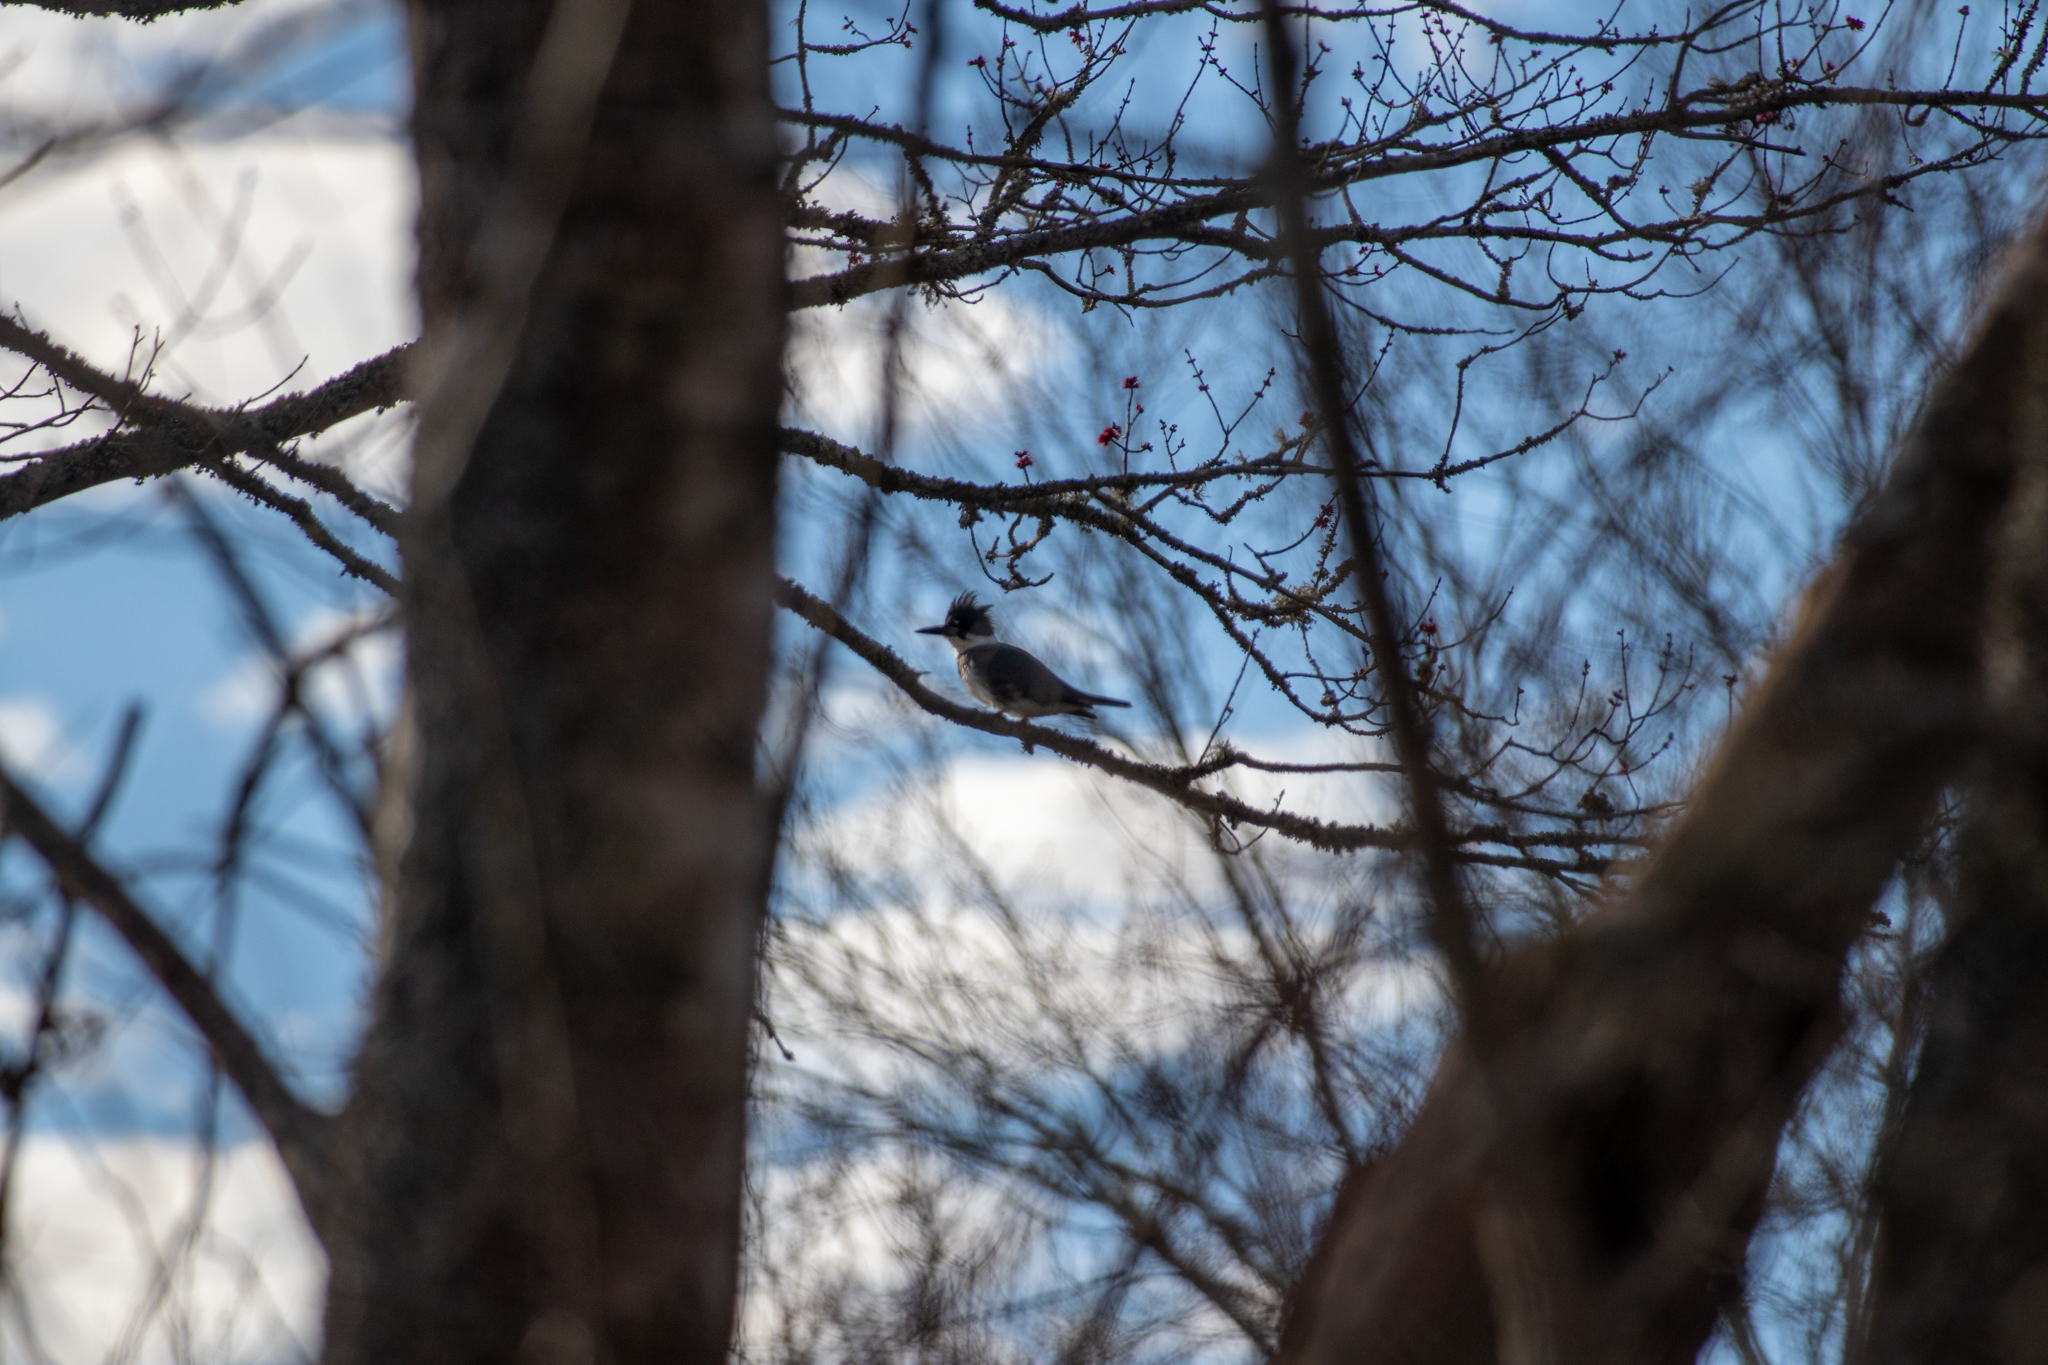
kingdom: Animalia
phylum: Chordata
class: Aves
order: Coraciiformes
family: Alcedinidae
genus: Megaceryle
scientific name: Megaceryle alcyon
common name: Belted kingfisher
